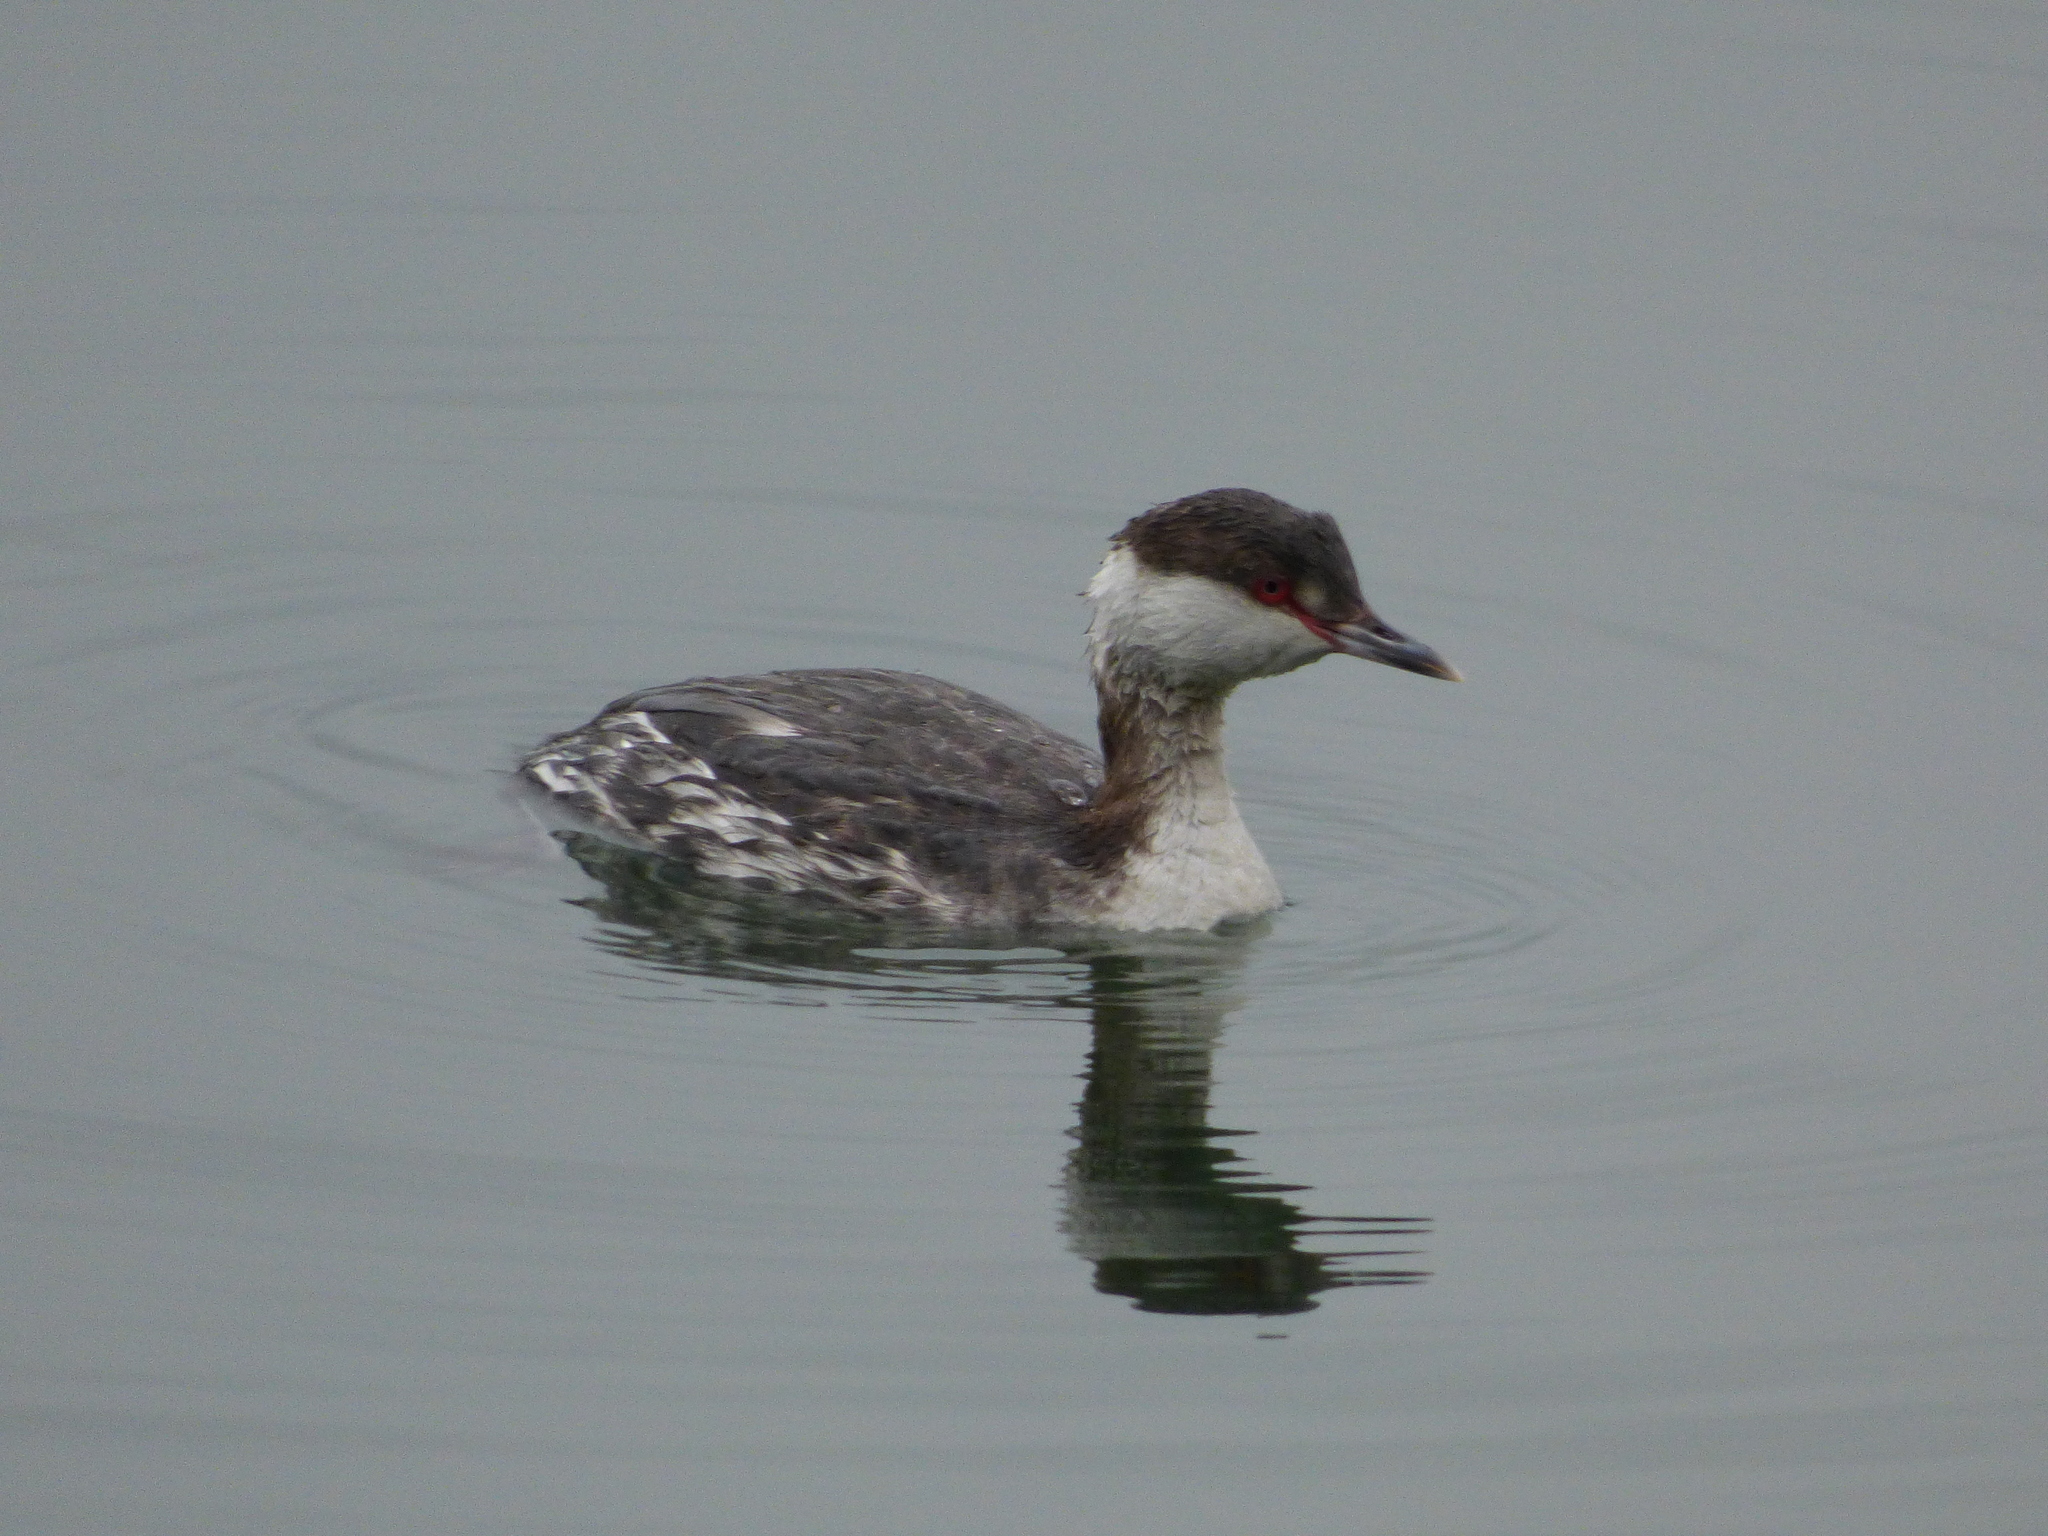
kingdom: Animalia
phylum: Chordata
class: Aves
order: Podicipediformes
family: Podicipedidae
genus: Podiceps
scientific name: Podiceps auritus
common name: Horned grebe
